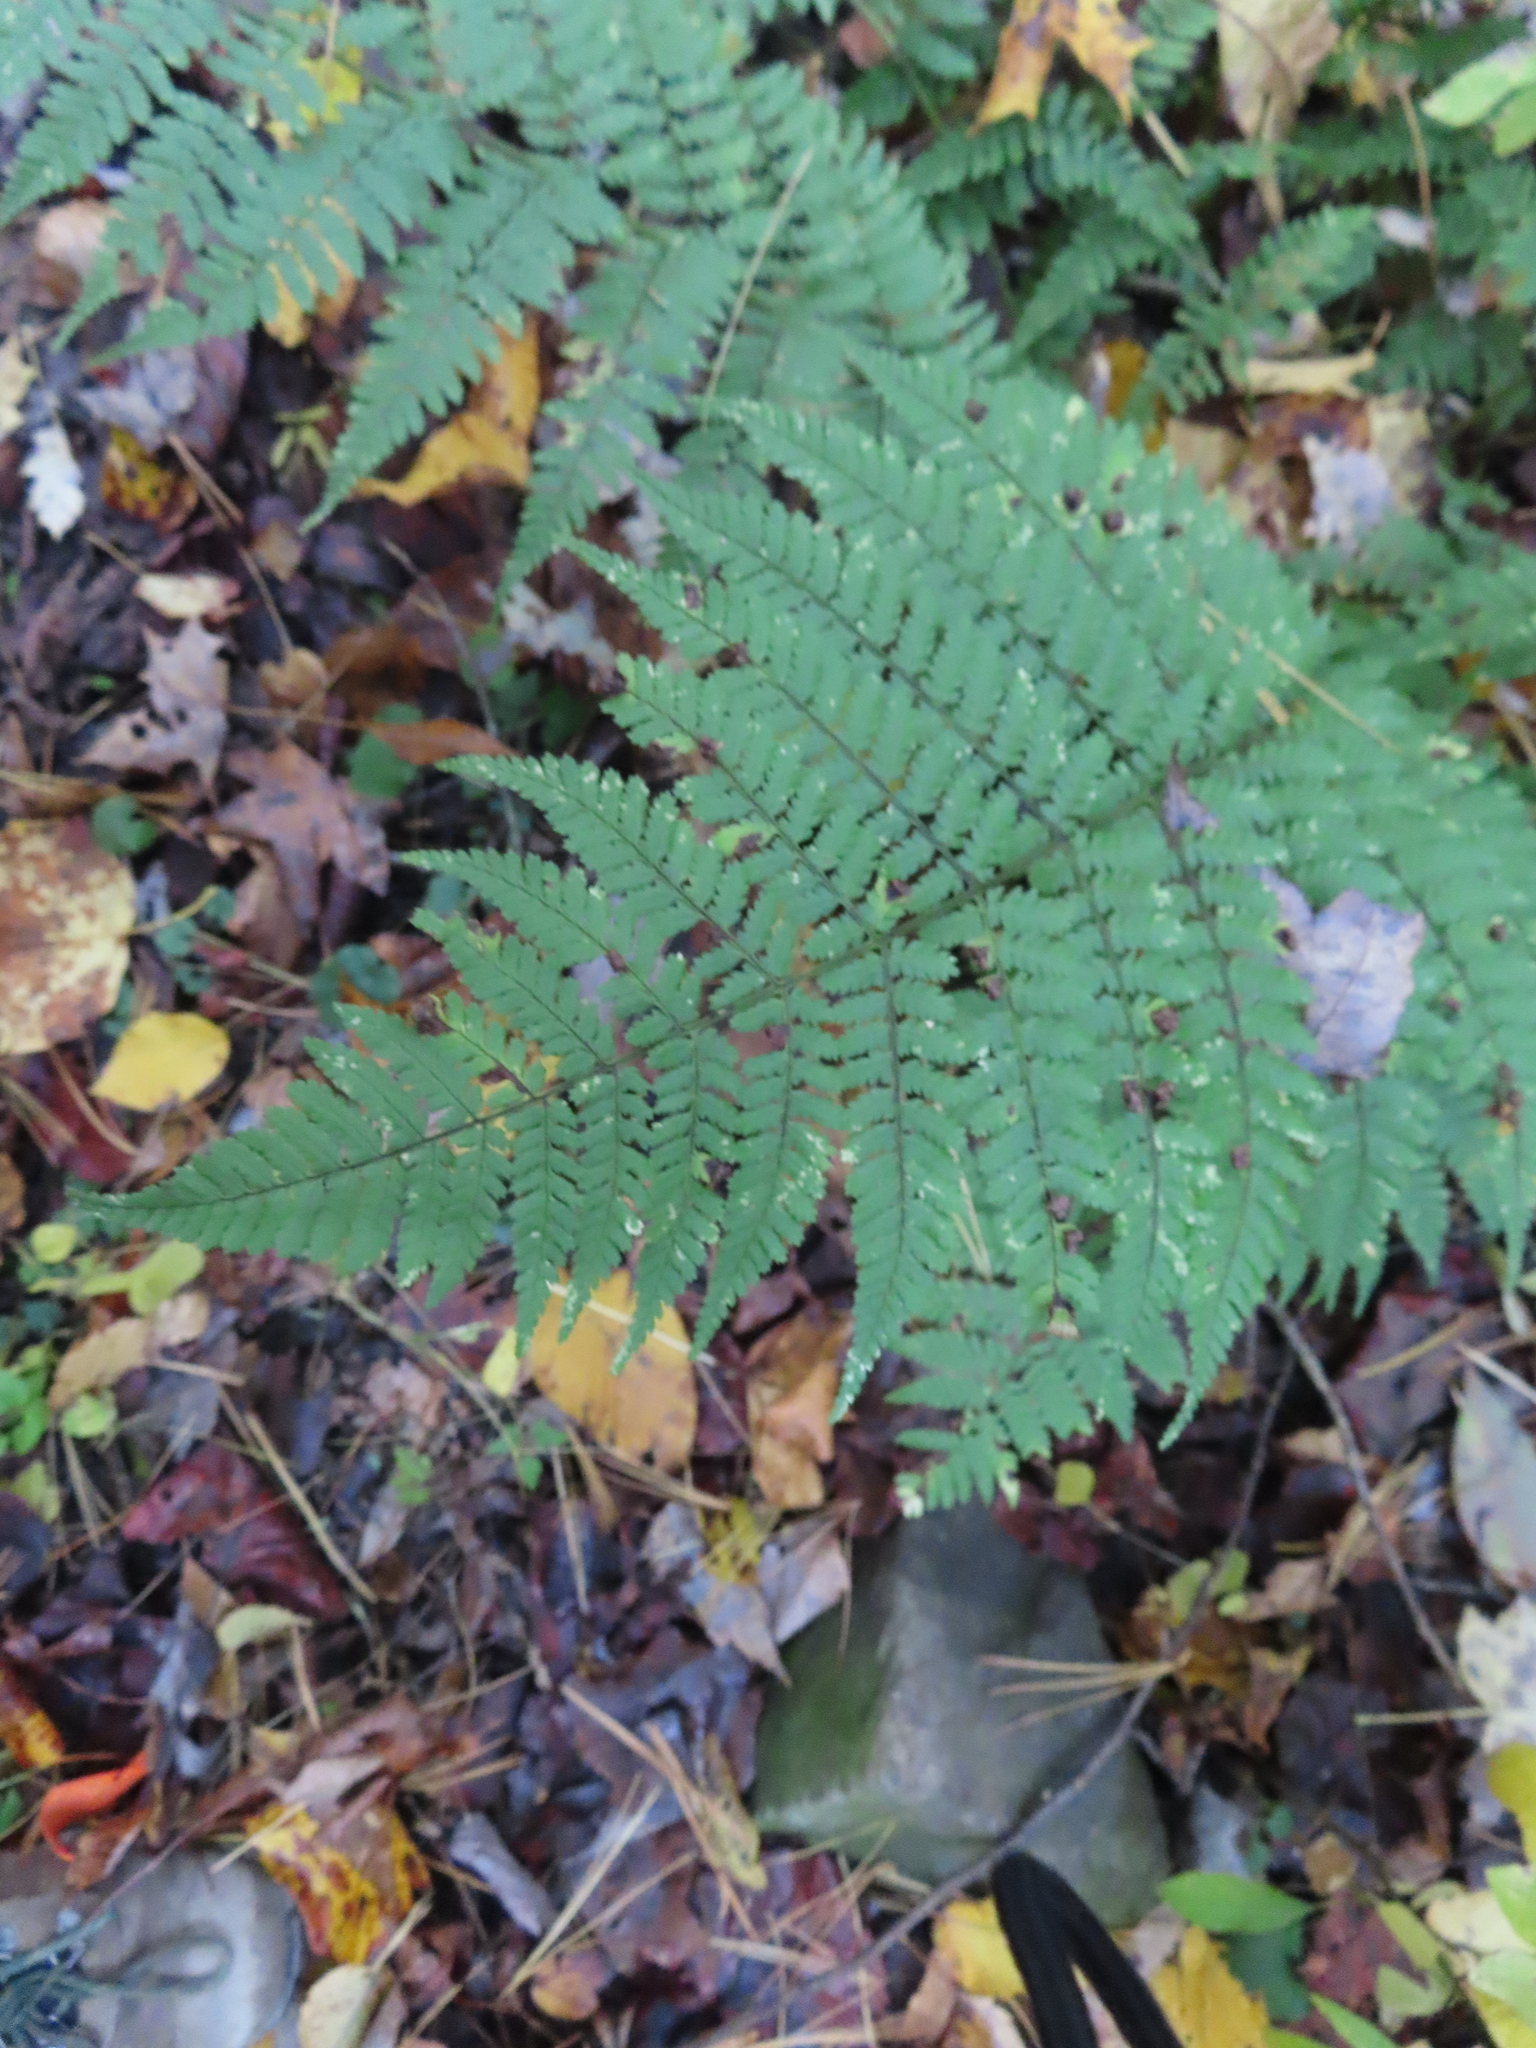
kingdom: Plantae
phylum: Tracheophyta
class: Polypodiopsida
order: Polypodiales
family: Dryopteridaceae
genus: Dryopteris
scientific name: Dryopteris intermedia
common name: Evergreen wood fern
